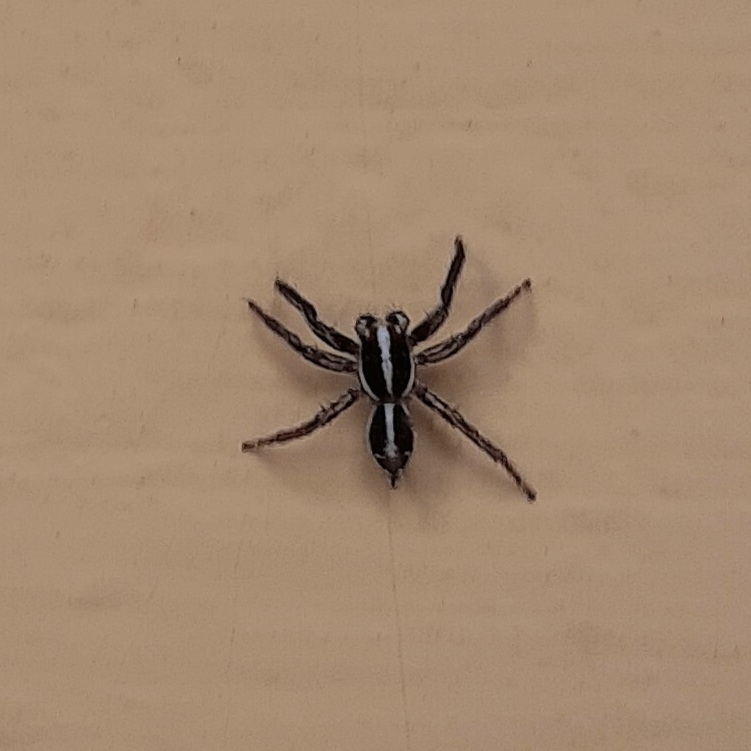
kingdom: Animalia
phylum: Arthropoda
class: Arachnida
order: Araneae
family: Salticidae
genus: Plexippus
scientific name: Plexippus paykulli
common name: Pantropical jumper
